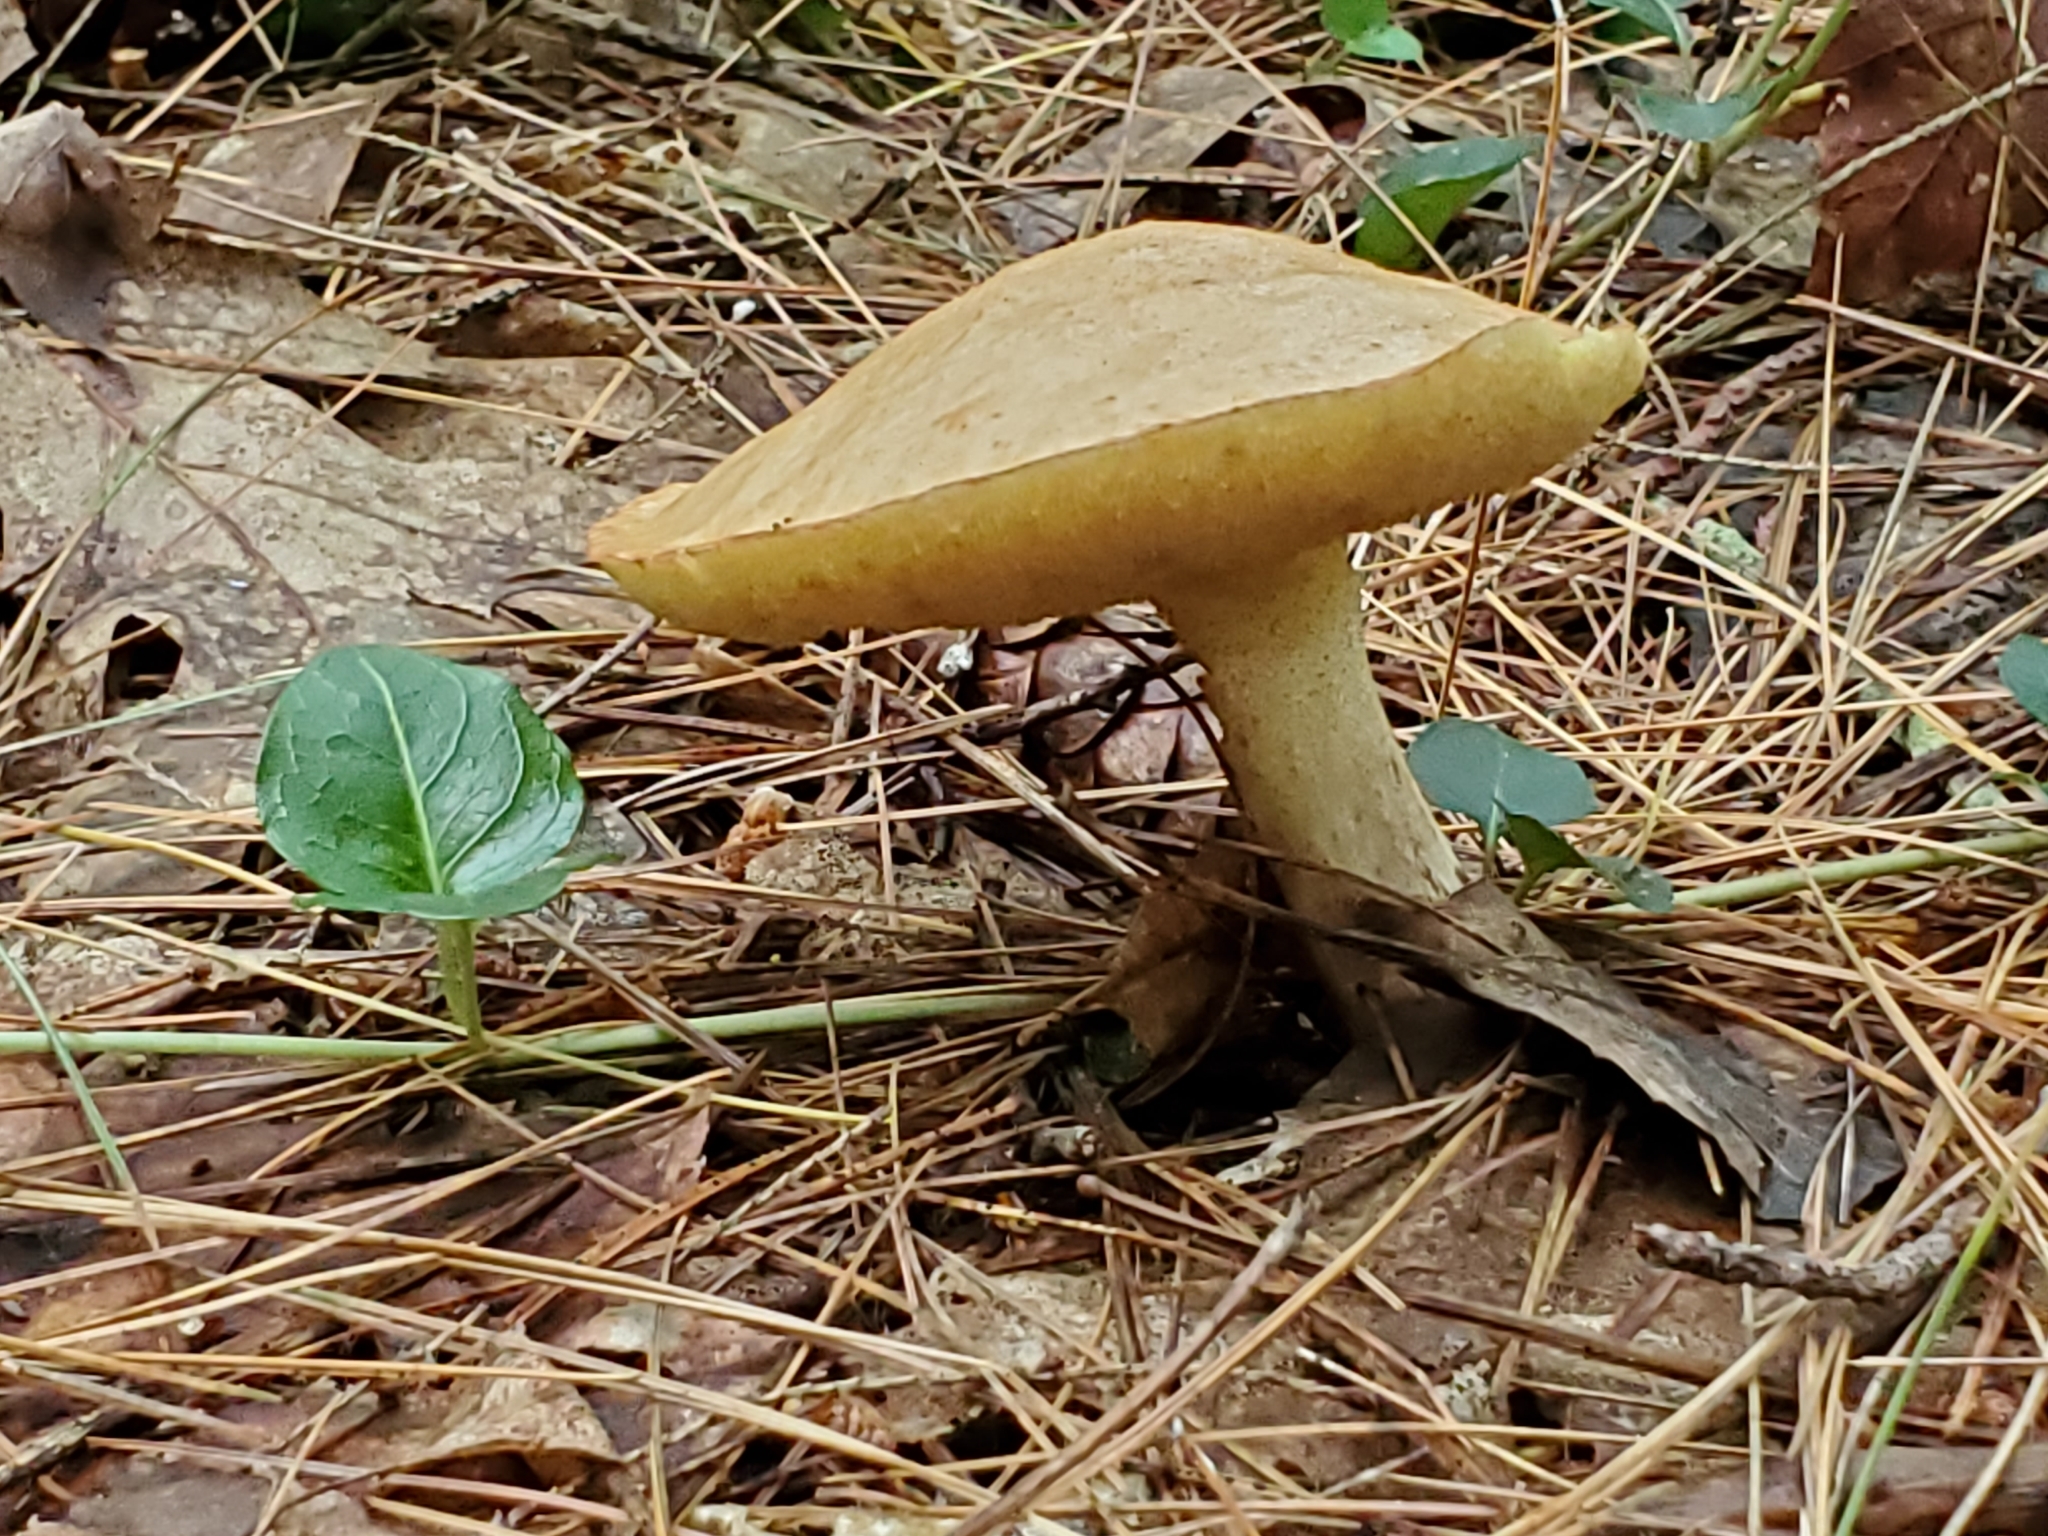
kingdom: Fungi
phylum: Basidiomycota
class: Agaricomycetes
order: Boletales
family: Suillaceae
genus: Suillus
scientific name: Suillus granulatus
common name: Weeping bolete
